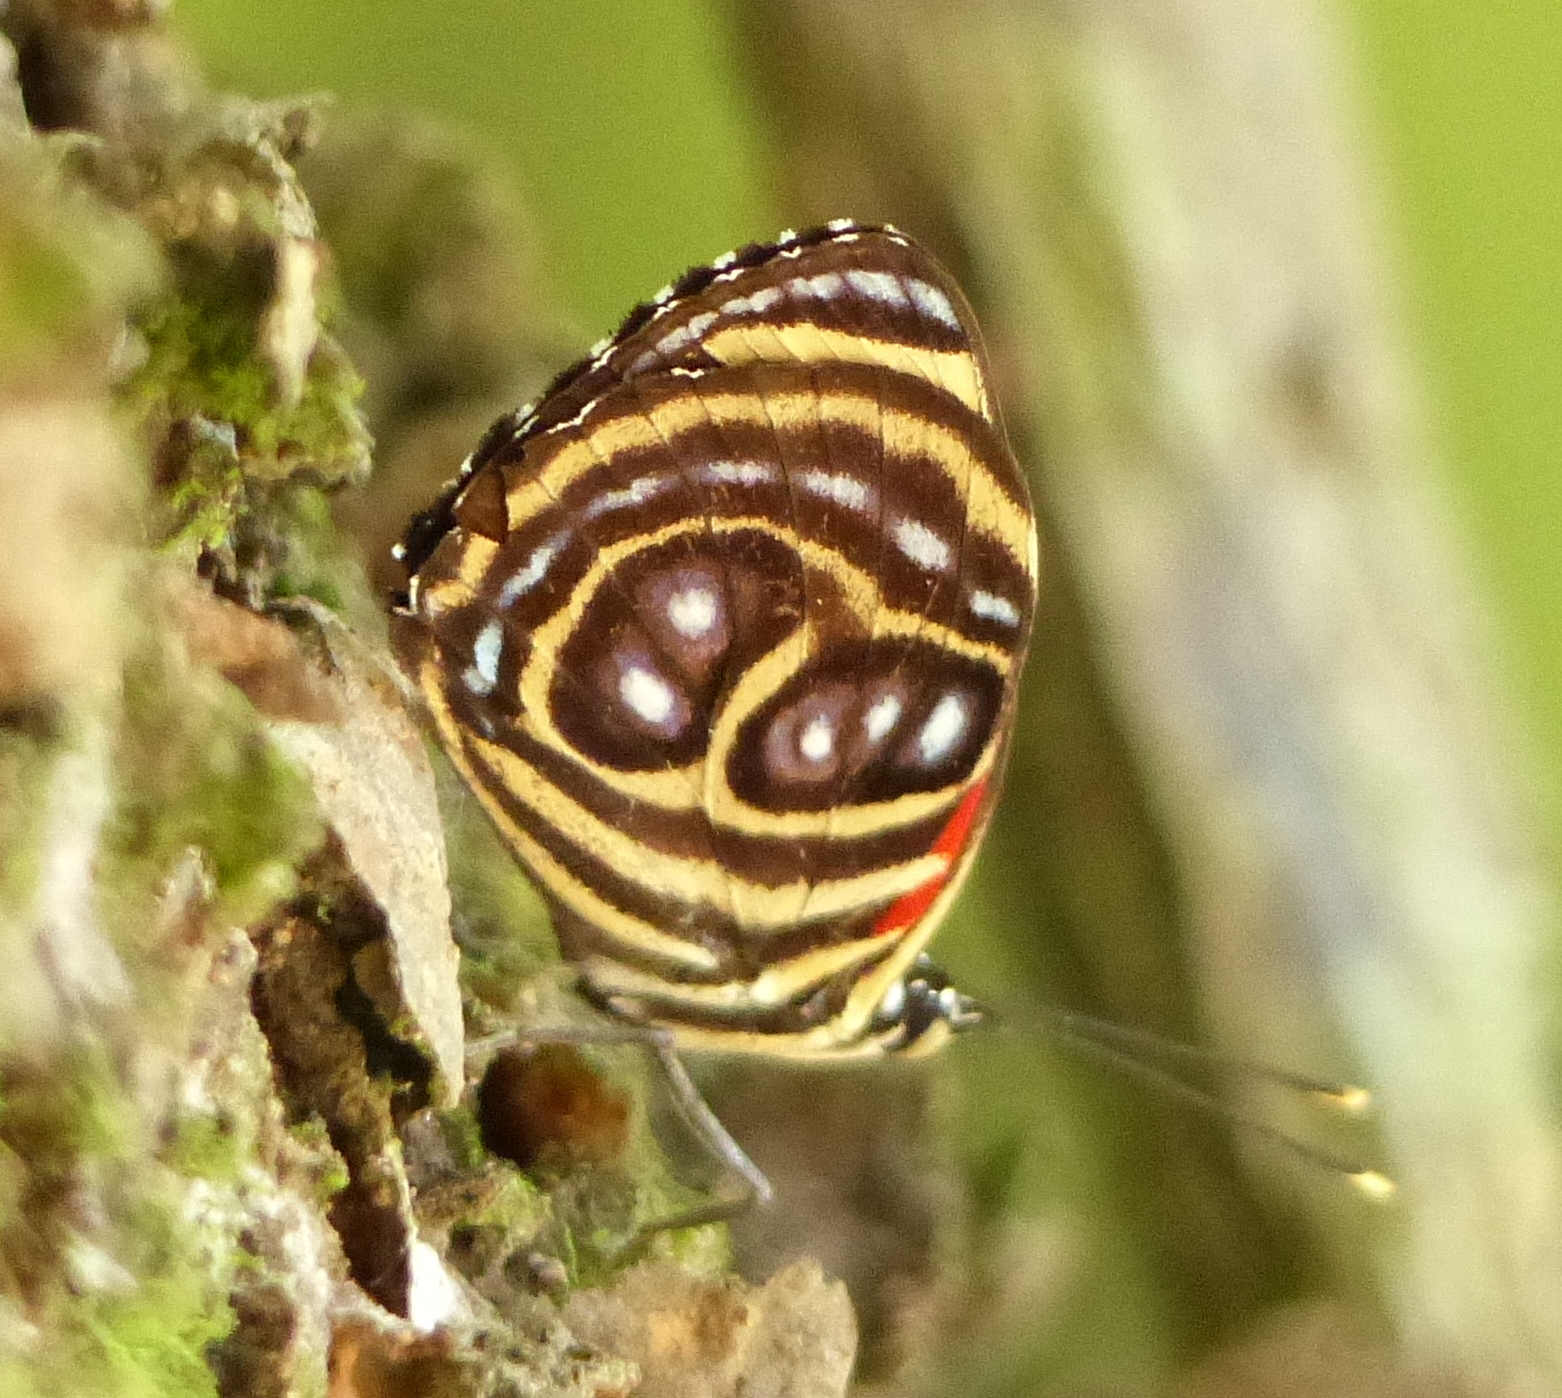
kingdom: Animalia
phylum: Arthropoda
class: Insecta
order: Lepidoptera
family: Nymphalidae
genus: Catagramma
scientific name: Catagramma pygas
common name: Godart's numberwing
